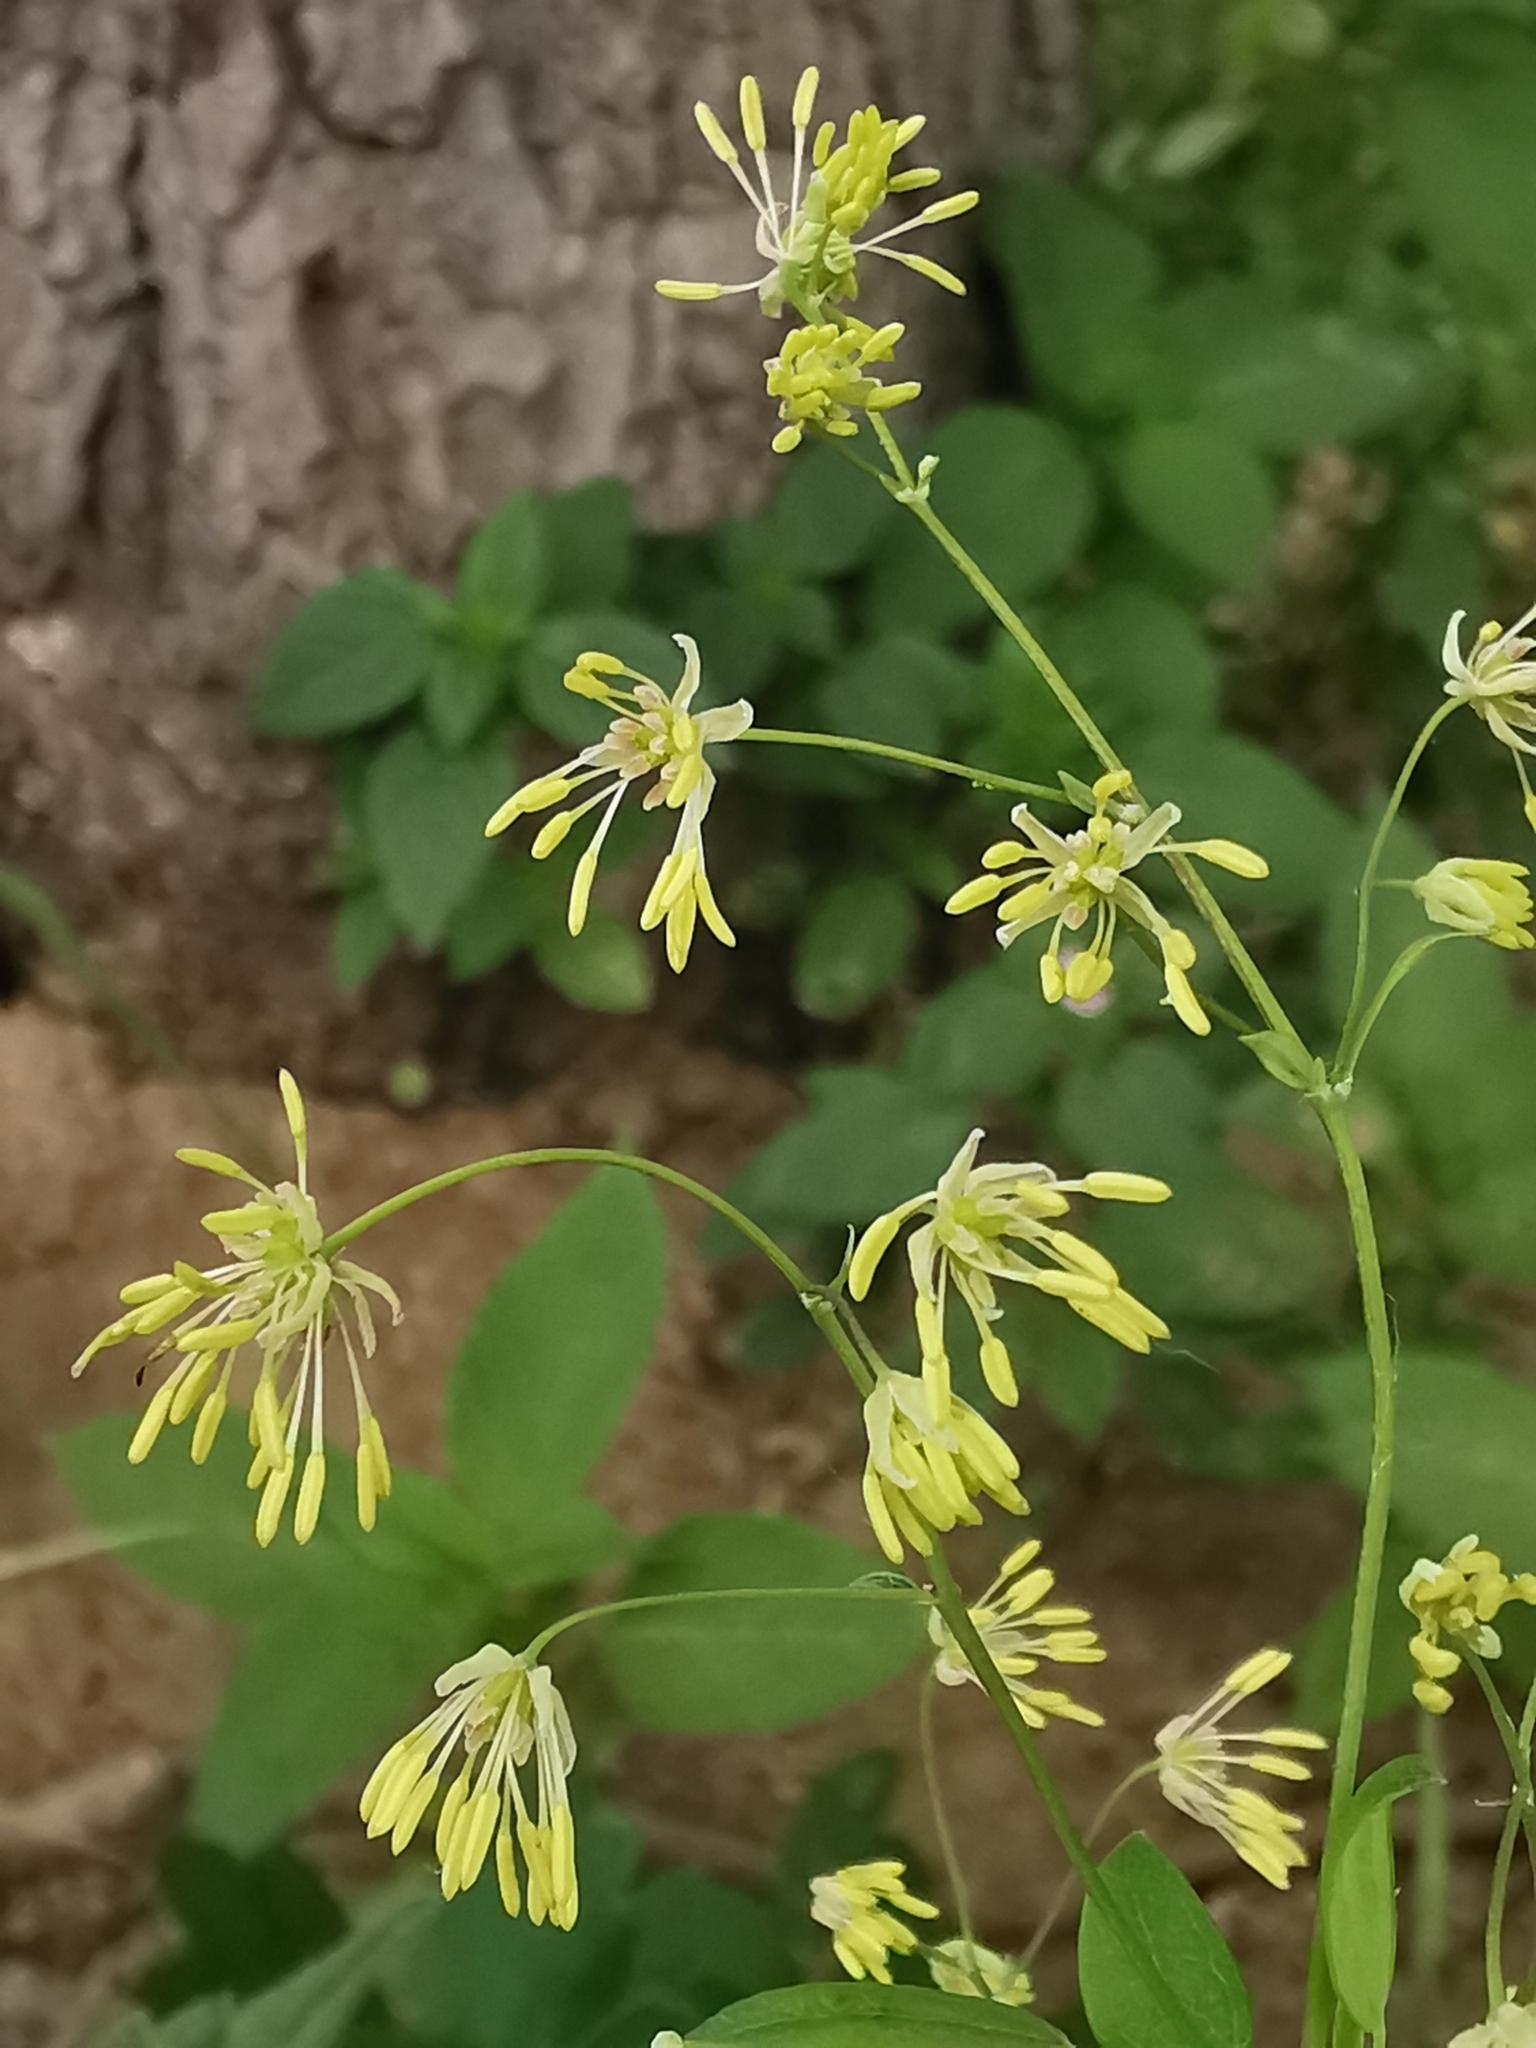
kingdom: Plantae
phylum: Tracheophyta
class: Magnoliopsida
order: Ranunculales
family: Ranunculaceae
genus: Thalictrum
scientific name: Thalictrum minus
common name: Lesser meadow-rue
